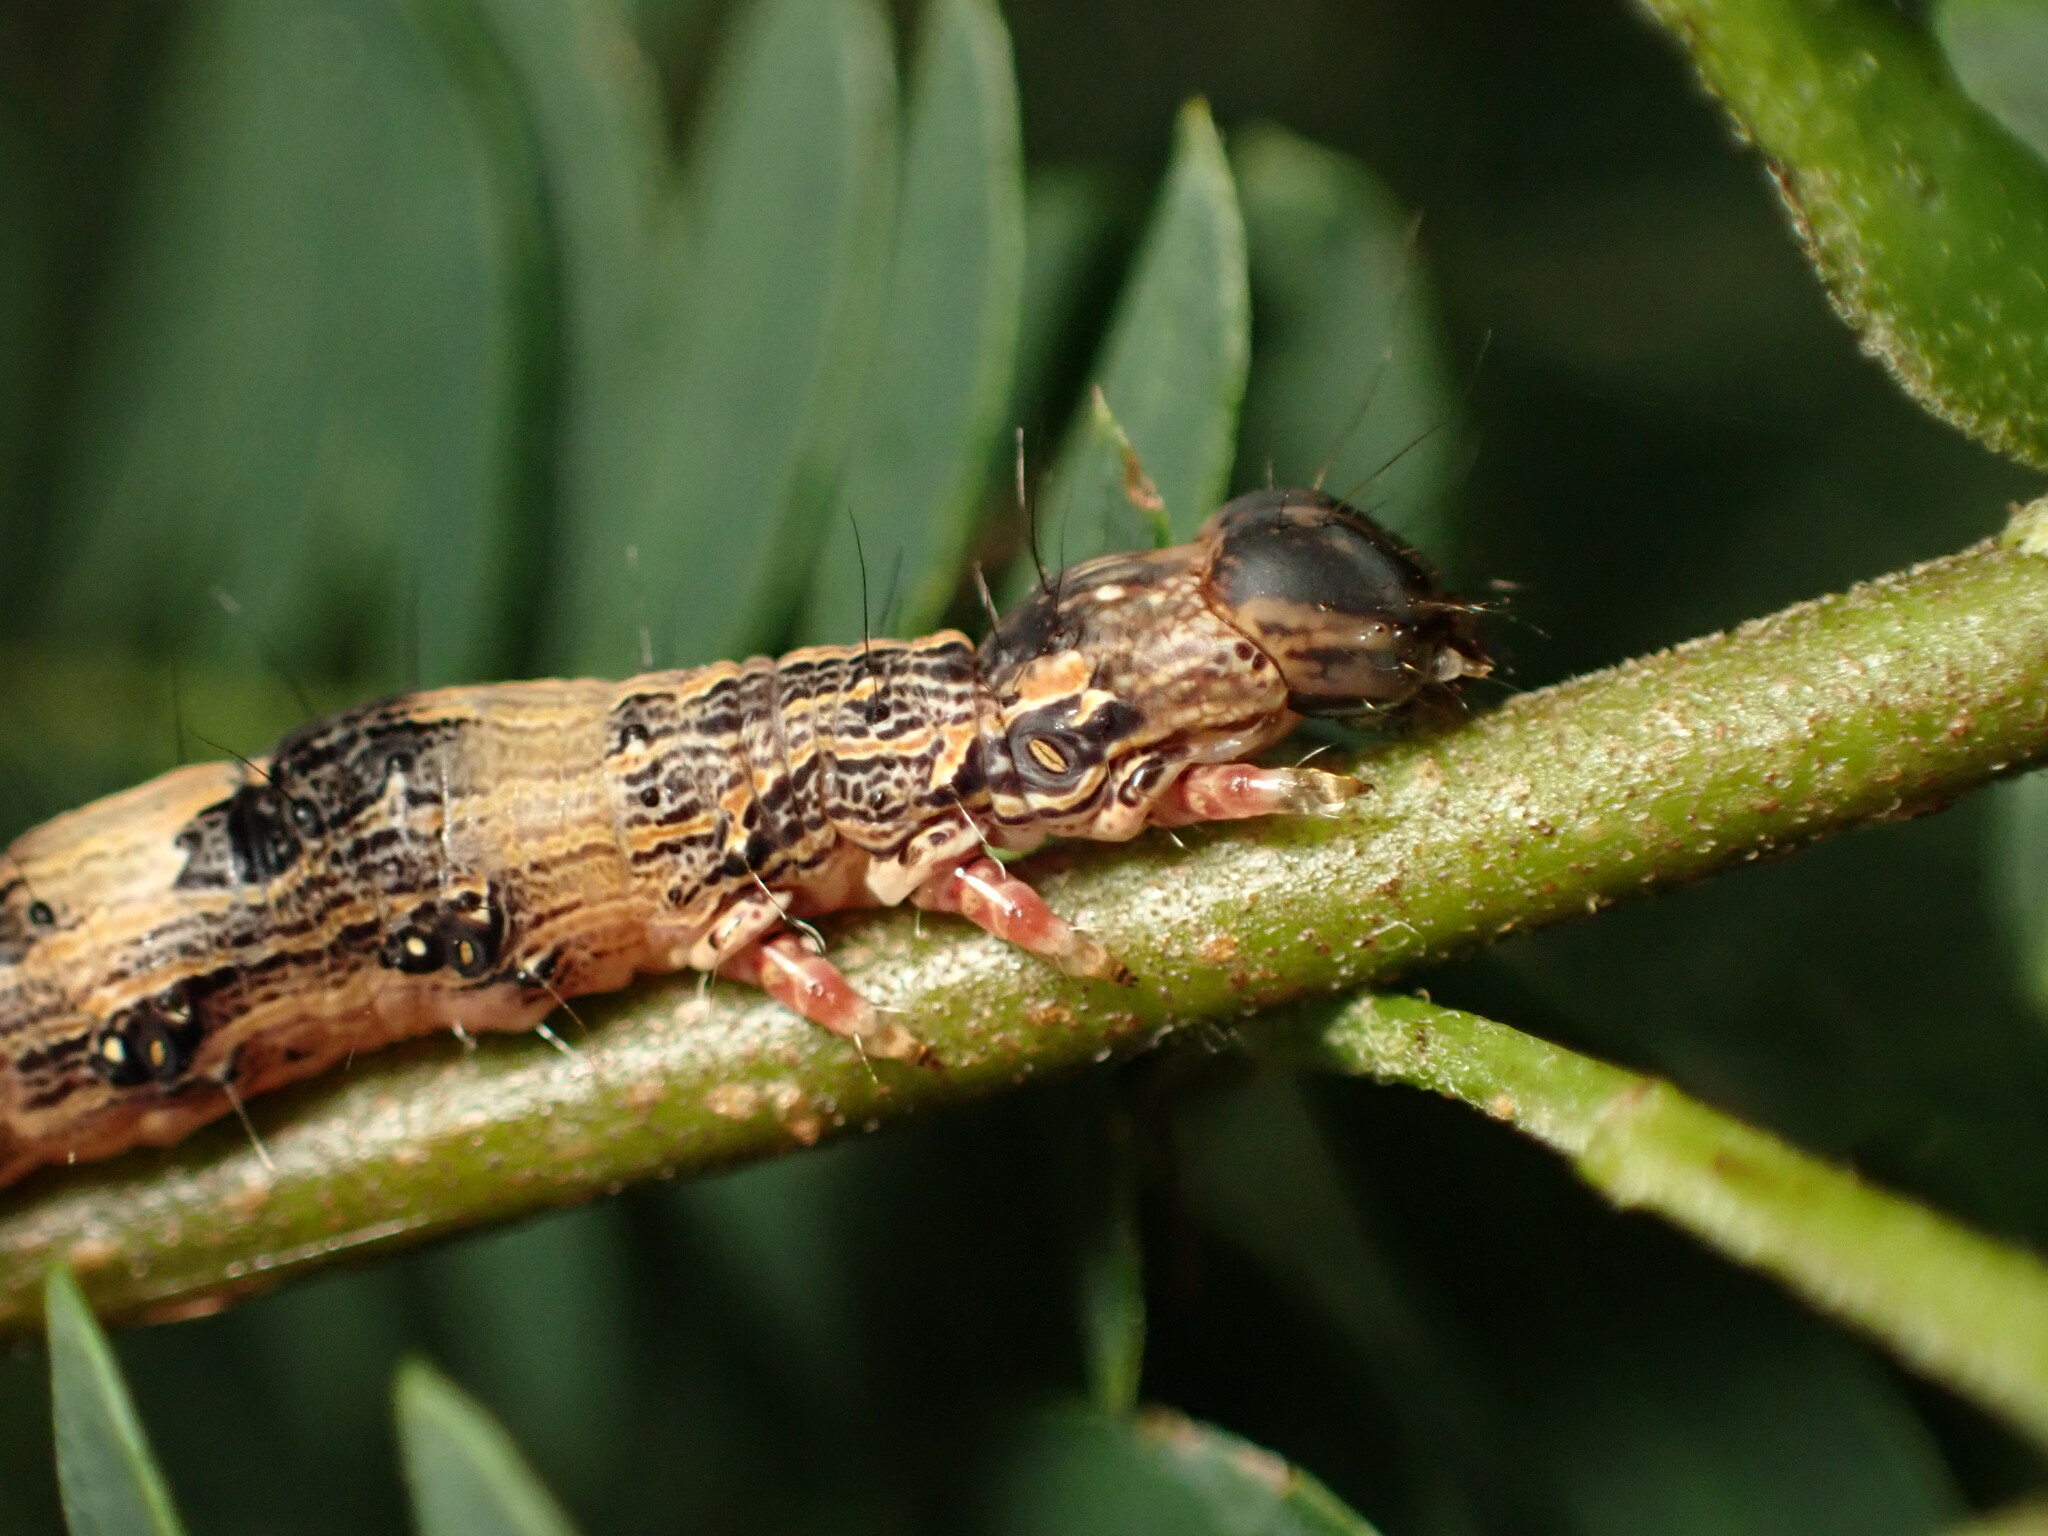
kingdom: Animalia
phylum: Arthropoda
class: Insecta
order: Lepidoptera
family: Erebidae
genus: Ascalapha
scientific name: Ascalapha odorata
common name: Black witch
